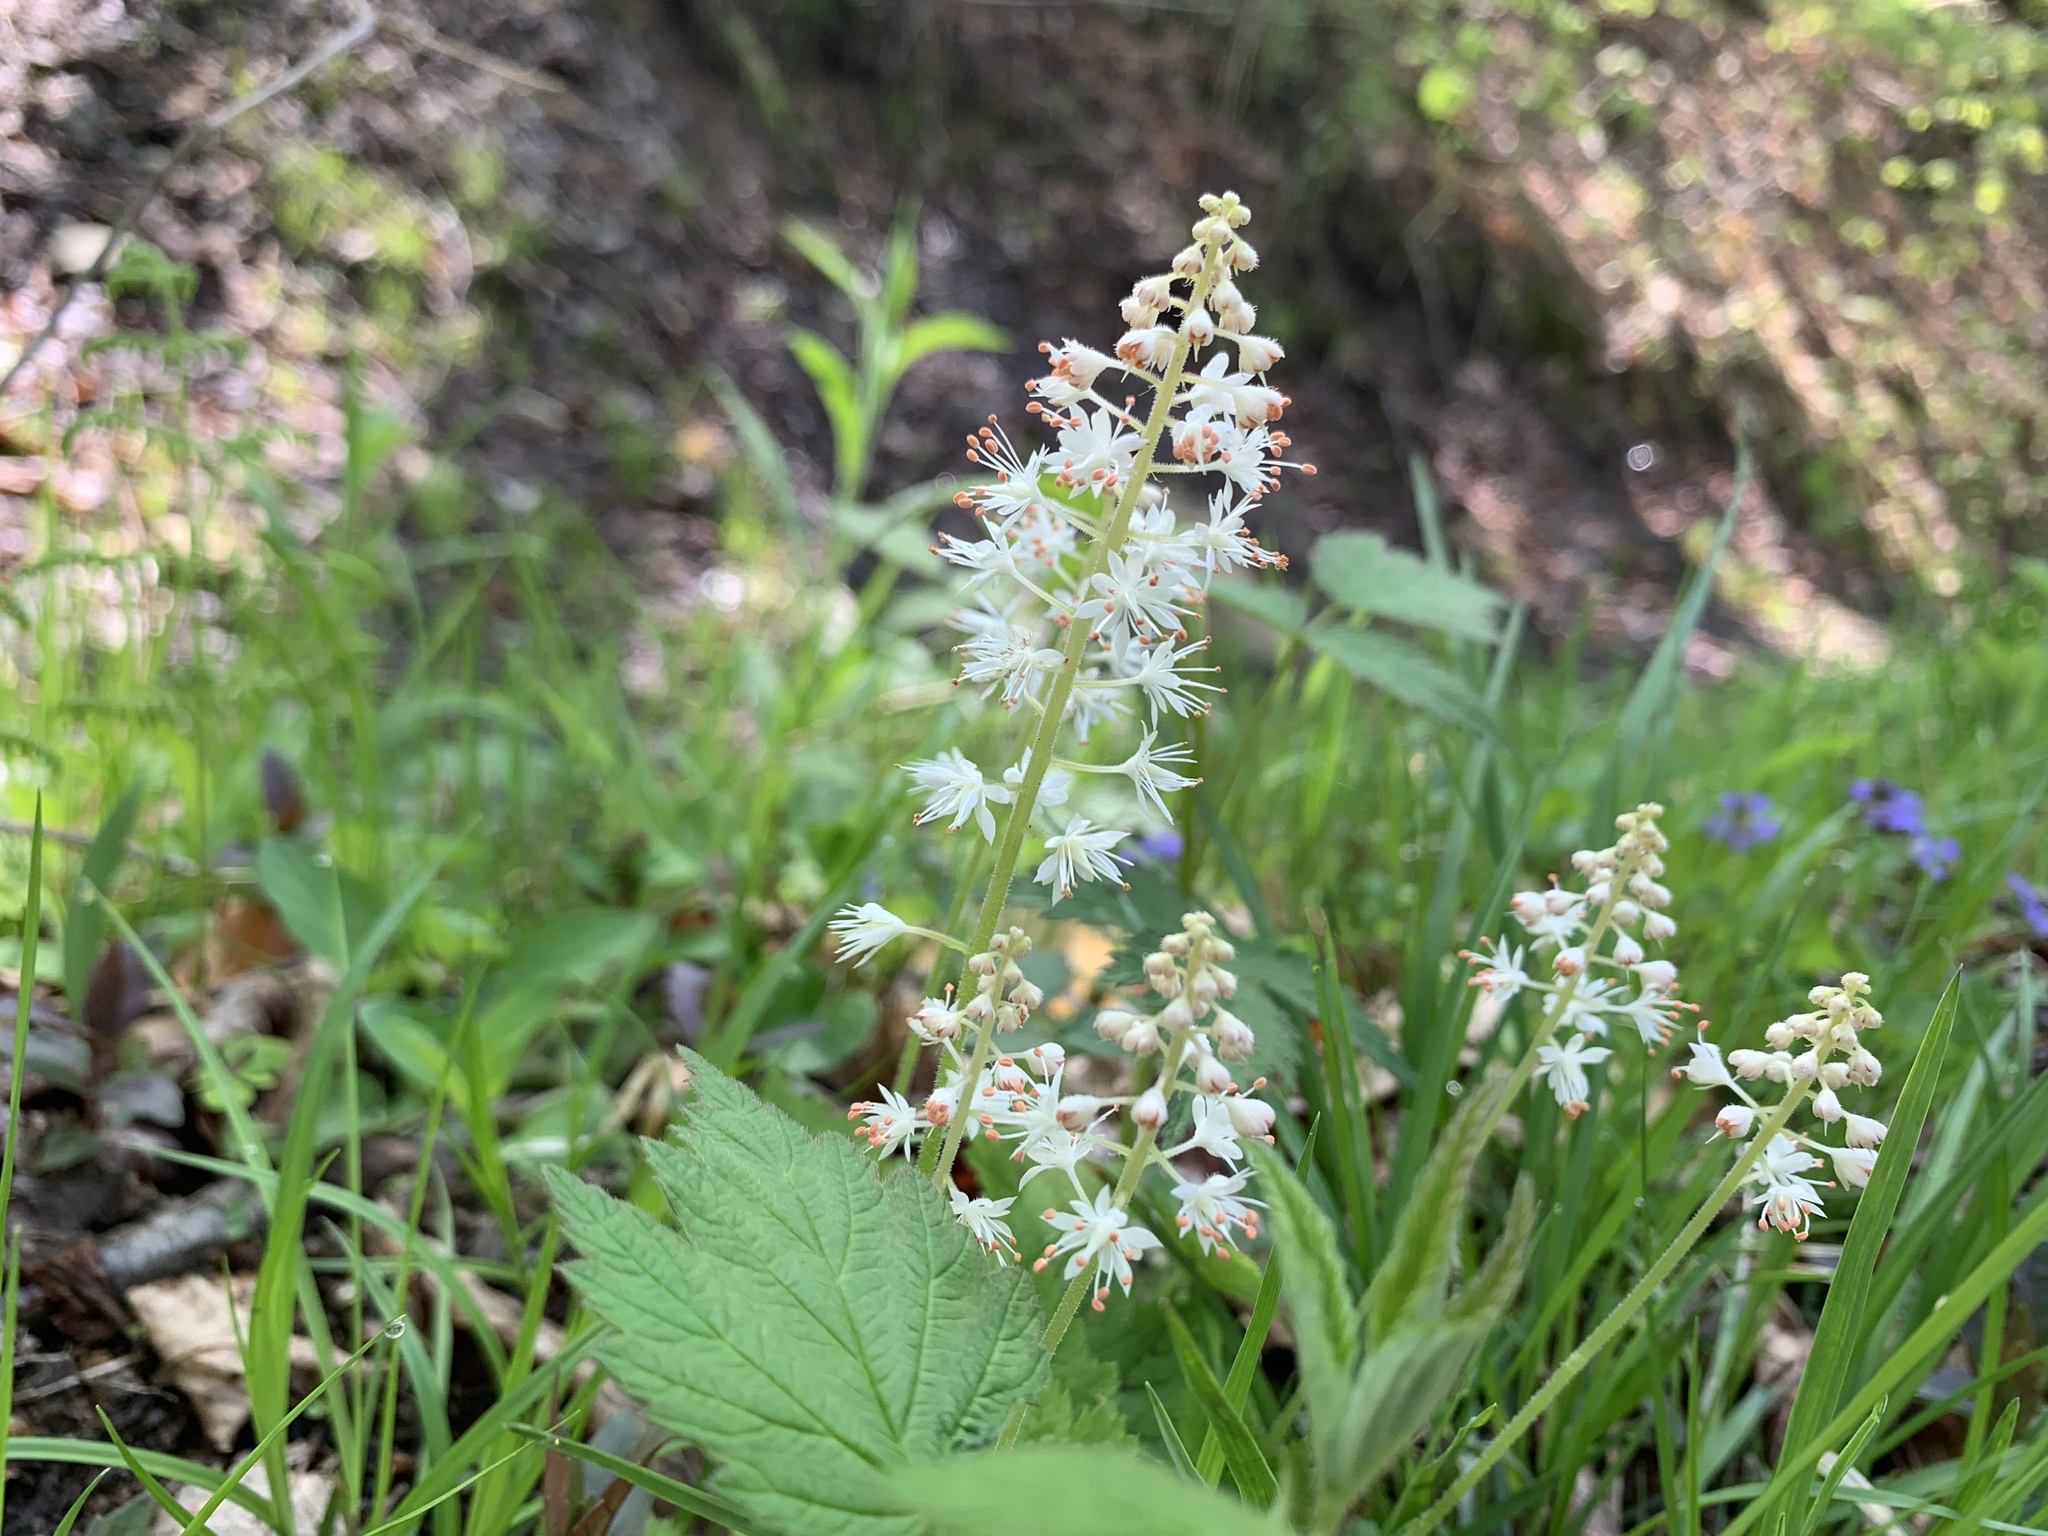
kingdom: Plantae
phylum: Tracheophyta
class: Magnoliopsida
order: Saxifragales
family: Saxifragaceae
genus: Tiarella
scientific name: Tiarella stolonifera
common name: Stoloniferous foamflower
